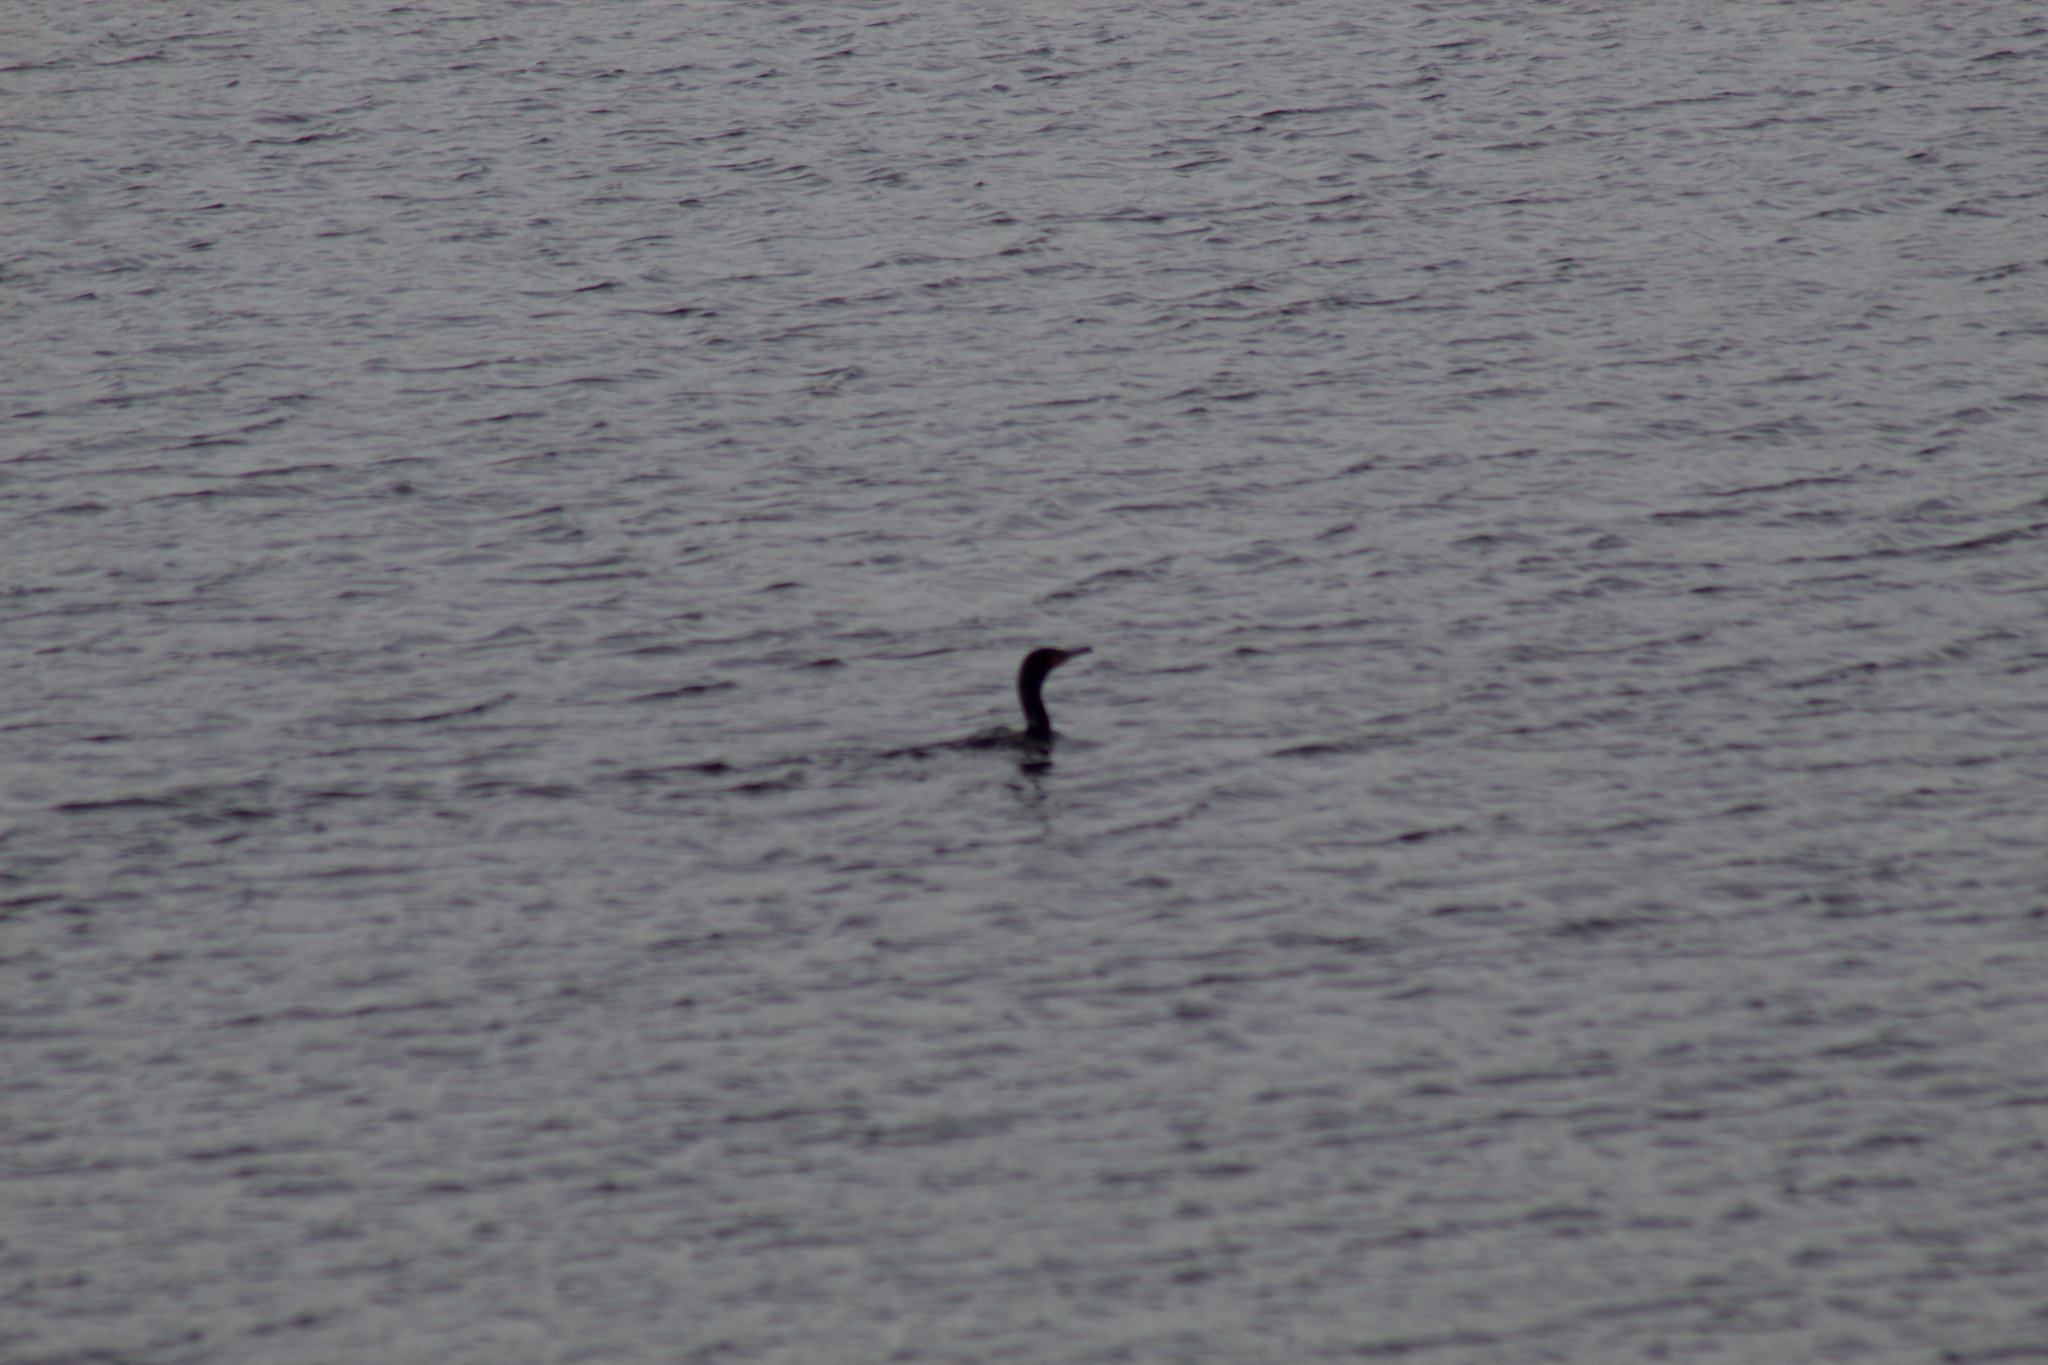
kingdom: Animalia
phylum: Chordata
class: Aves
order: Suliformes
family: Phalacrocoracidae
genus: Phalacrocorax
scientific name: Phalacrocorax auritus
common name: Double-crested cormorant
